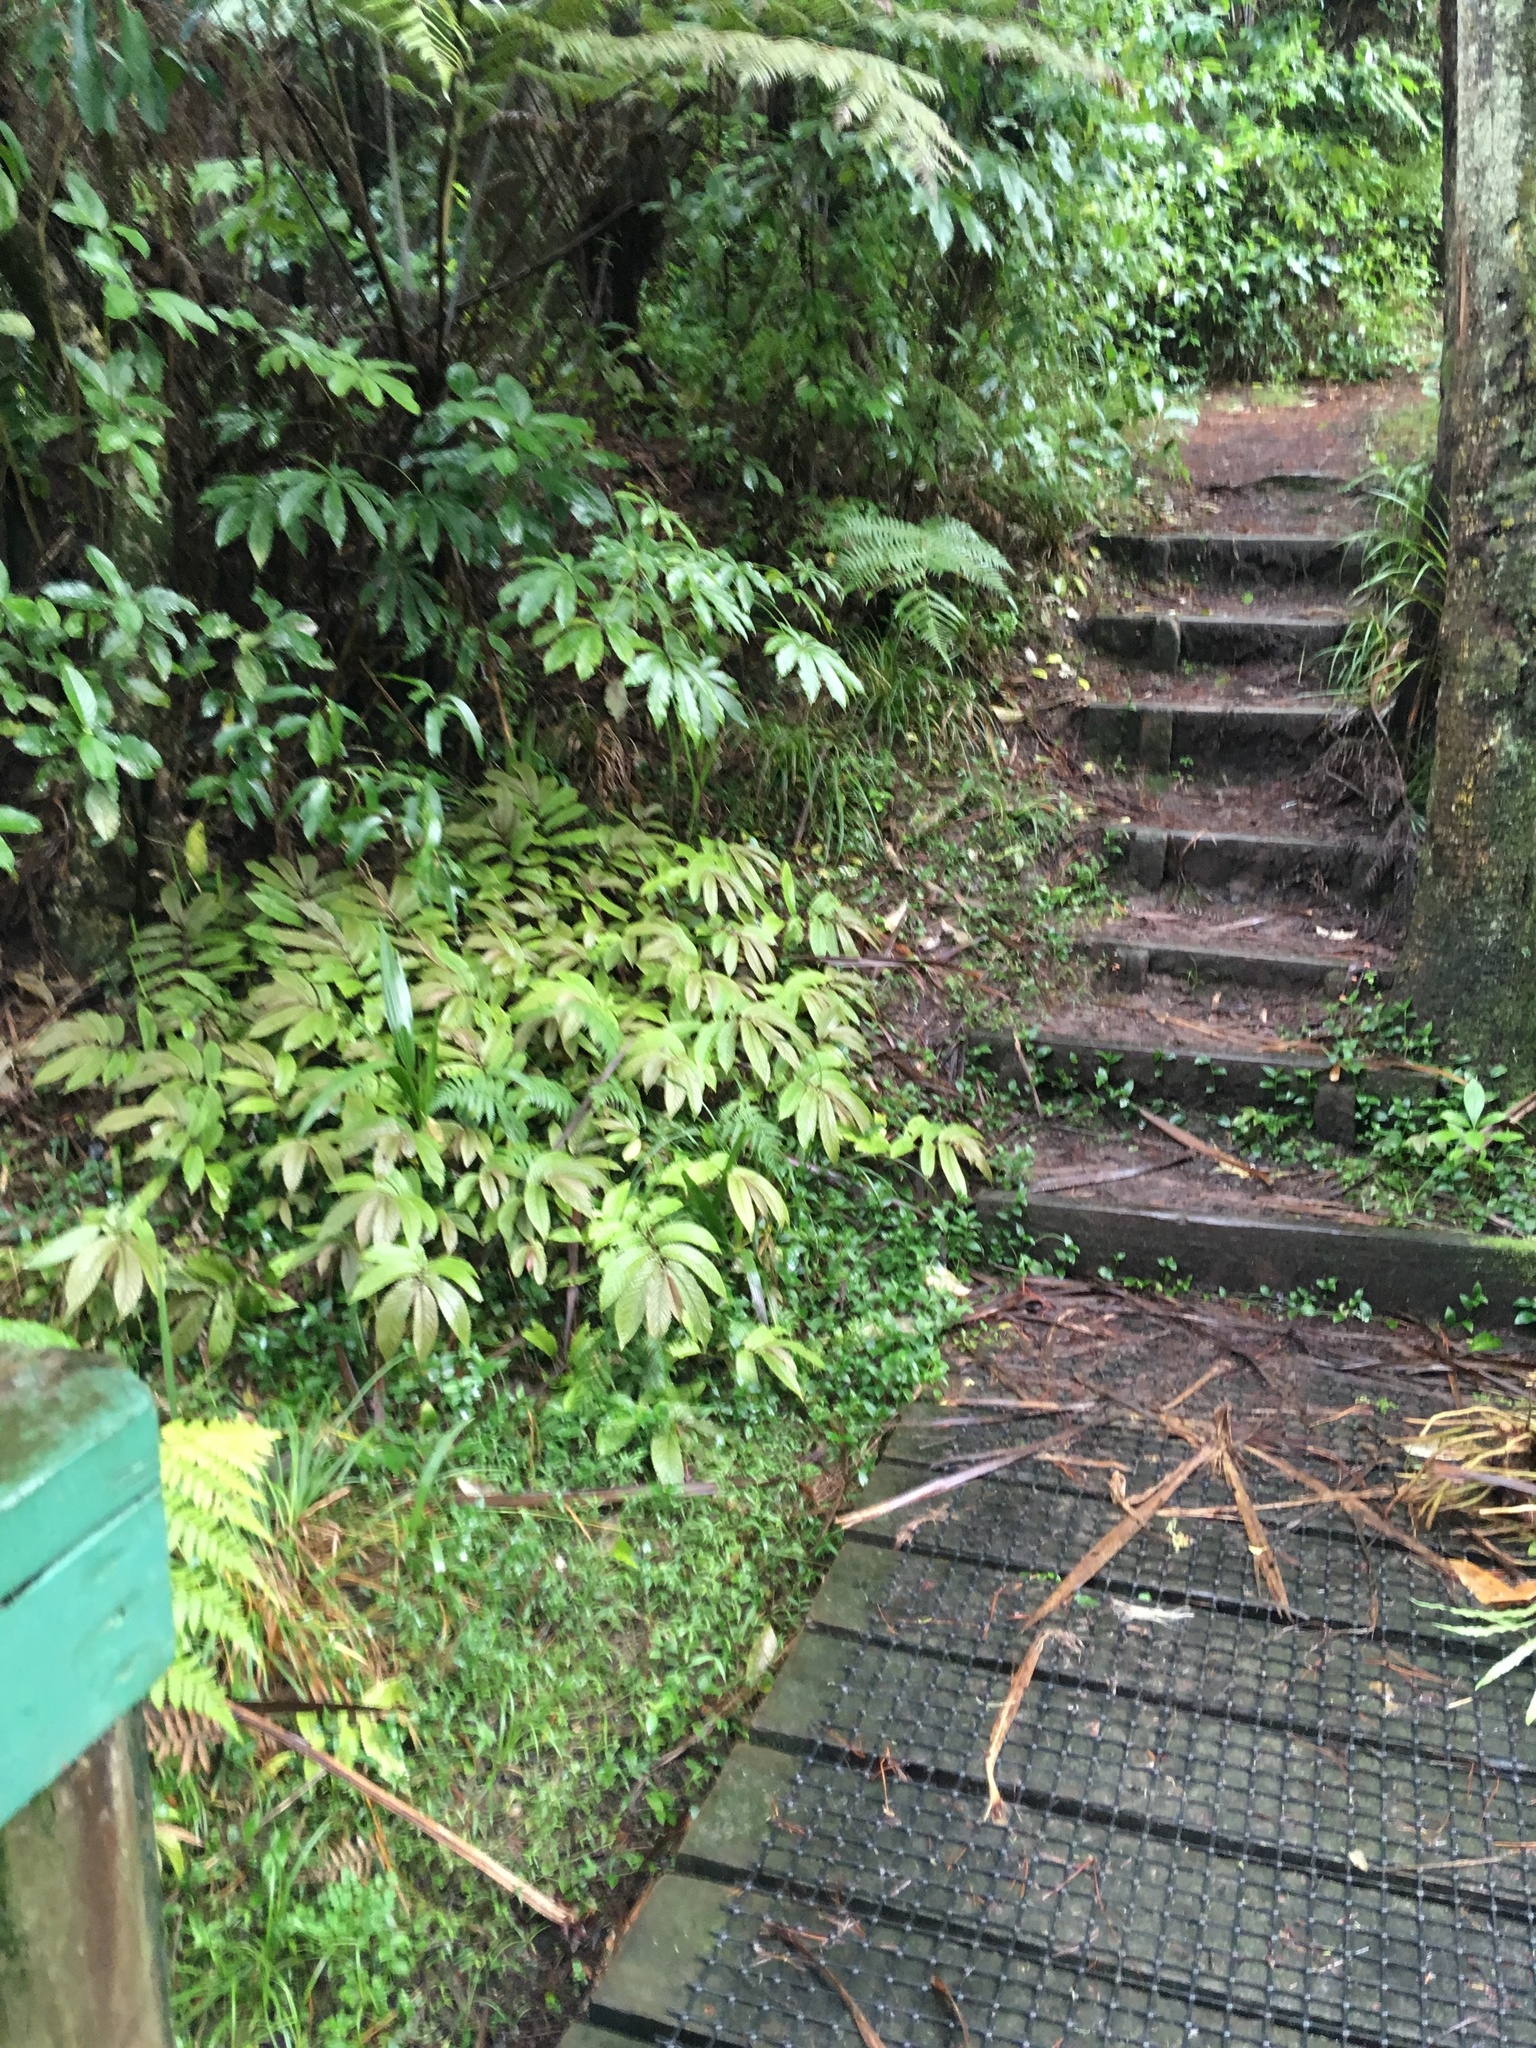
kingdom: Plantae
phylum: Tracheophyta
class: Magnoliopsida
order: Rosales
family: Urticaceae
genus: Elatostema
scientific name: Elatostema rugosum
